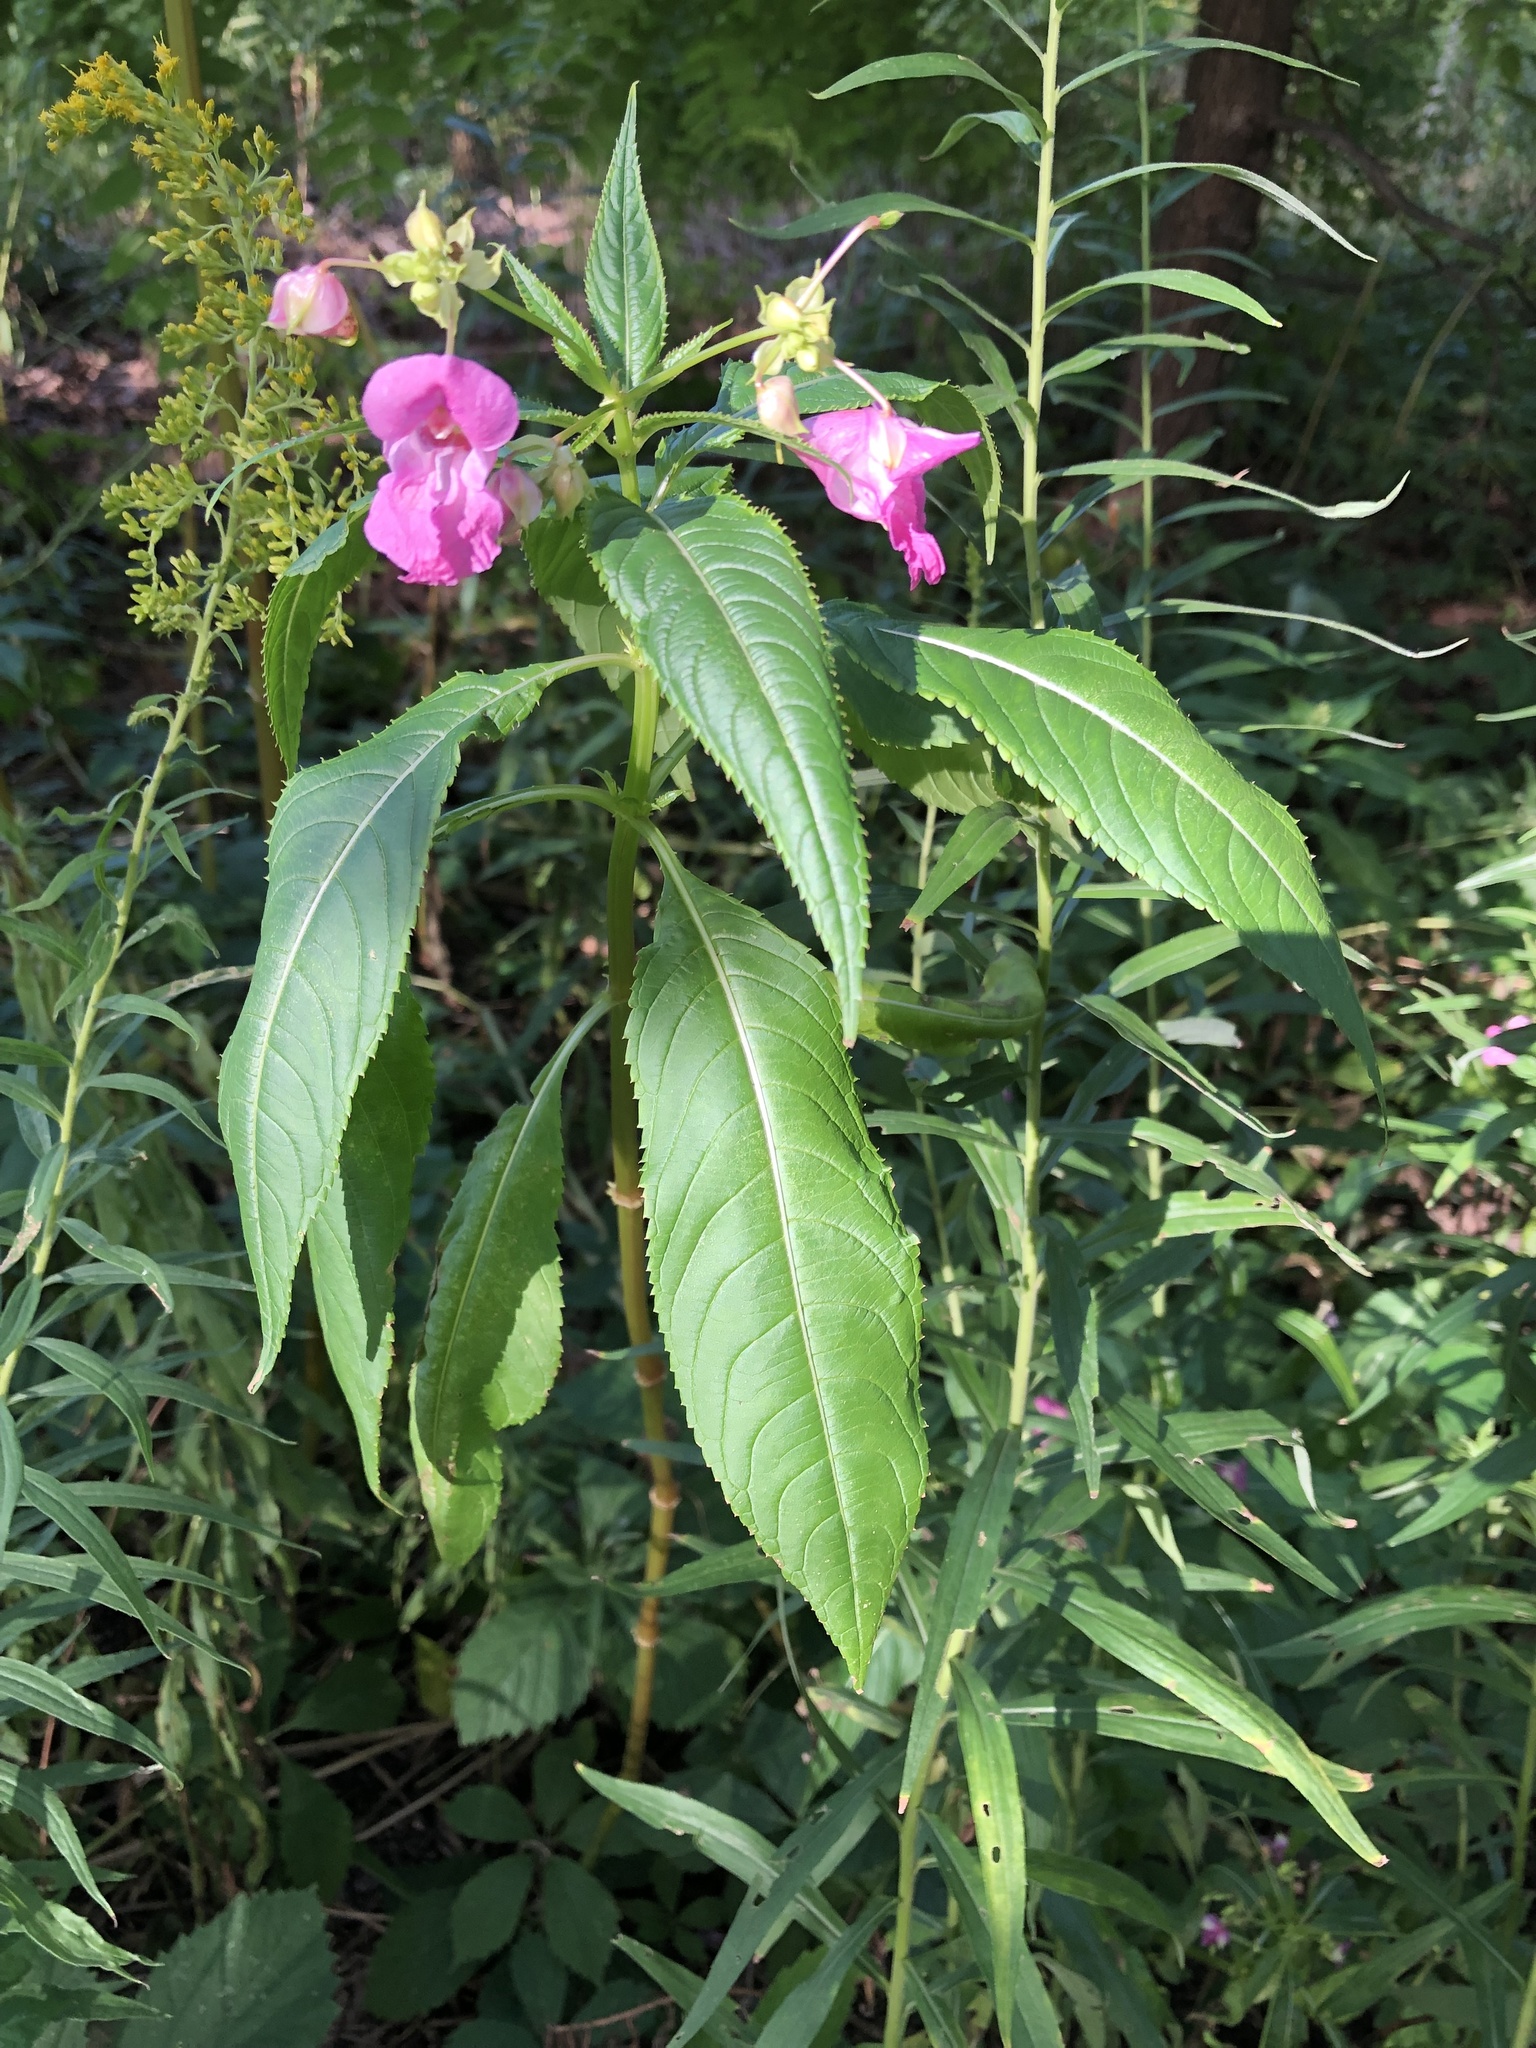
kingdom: Plantae
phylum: Tracheophyta
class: Magnoliopsida
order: Ericales
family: Balsaminaceae
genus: Impatiens
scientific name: Impatiens glandulifera
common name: Himalayan balsam
